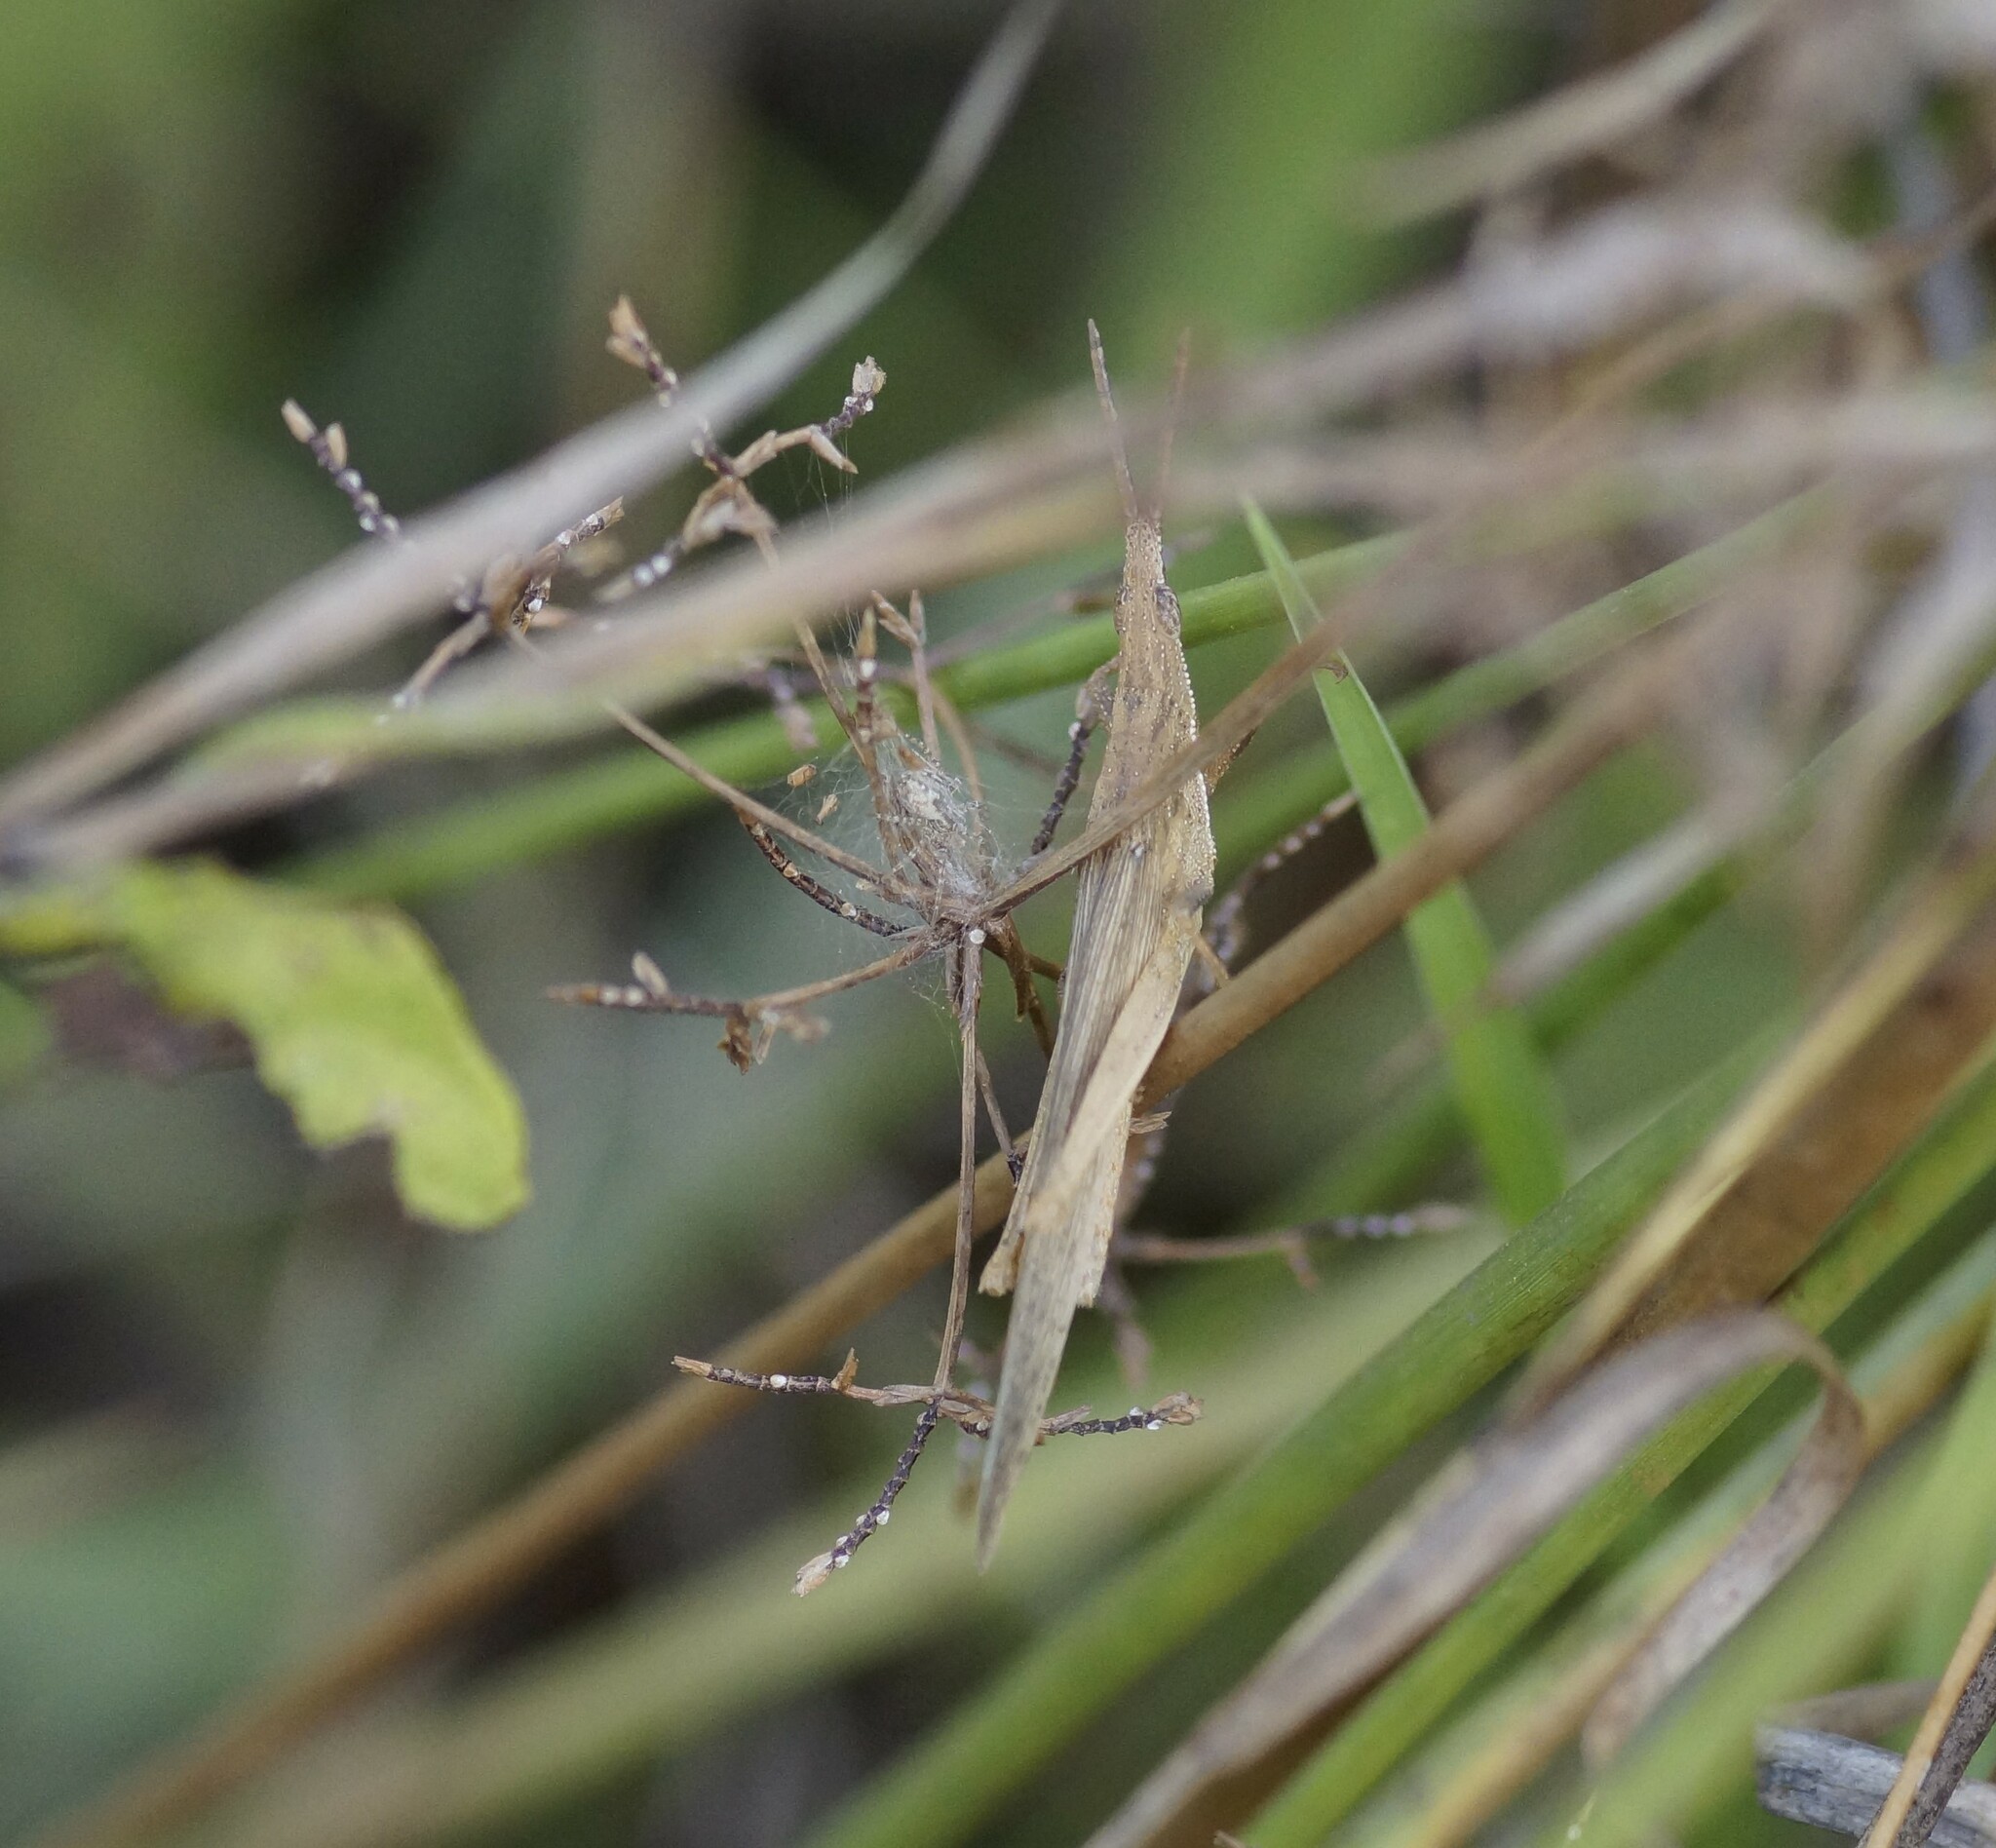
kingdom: Animalia
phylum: Arthropoda
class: Insecta
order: Orthoptera
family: Pyrgomorphidae
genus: Atractomorpha
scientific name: Atractomorpha similis
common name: Northern grass pyrgomorph
